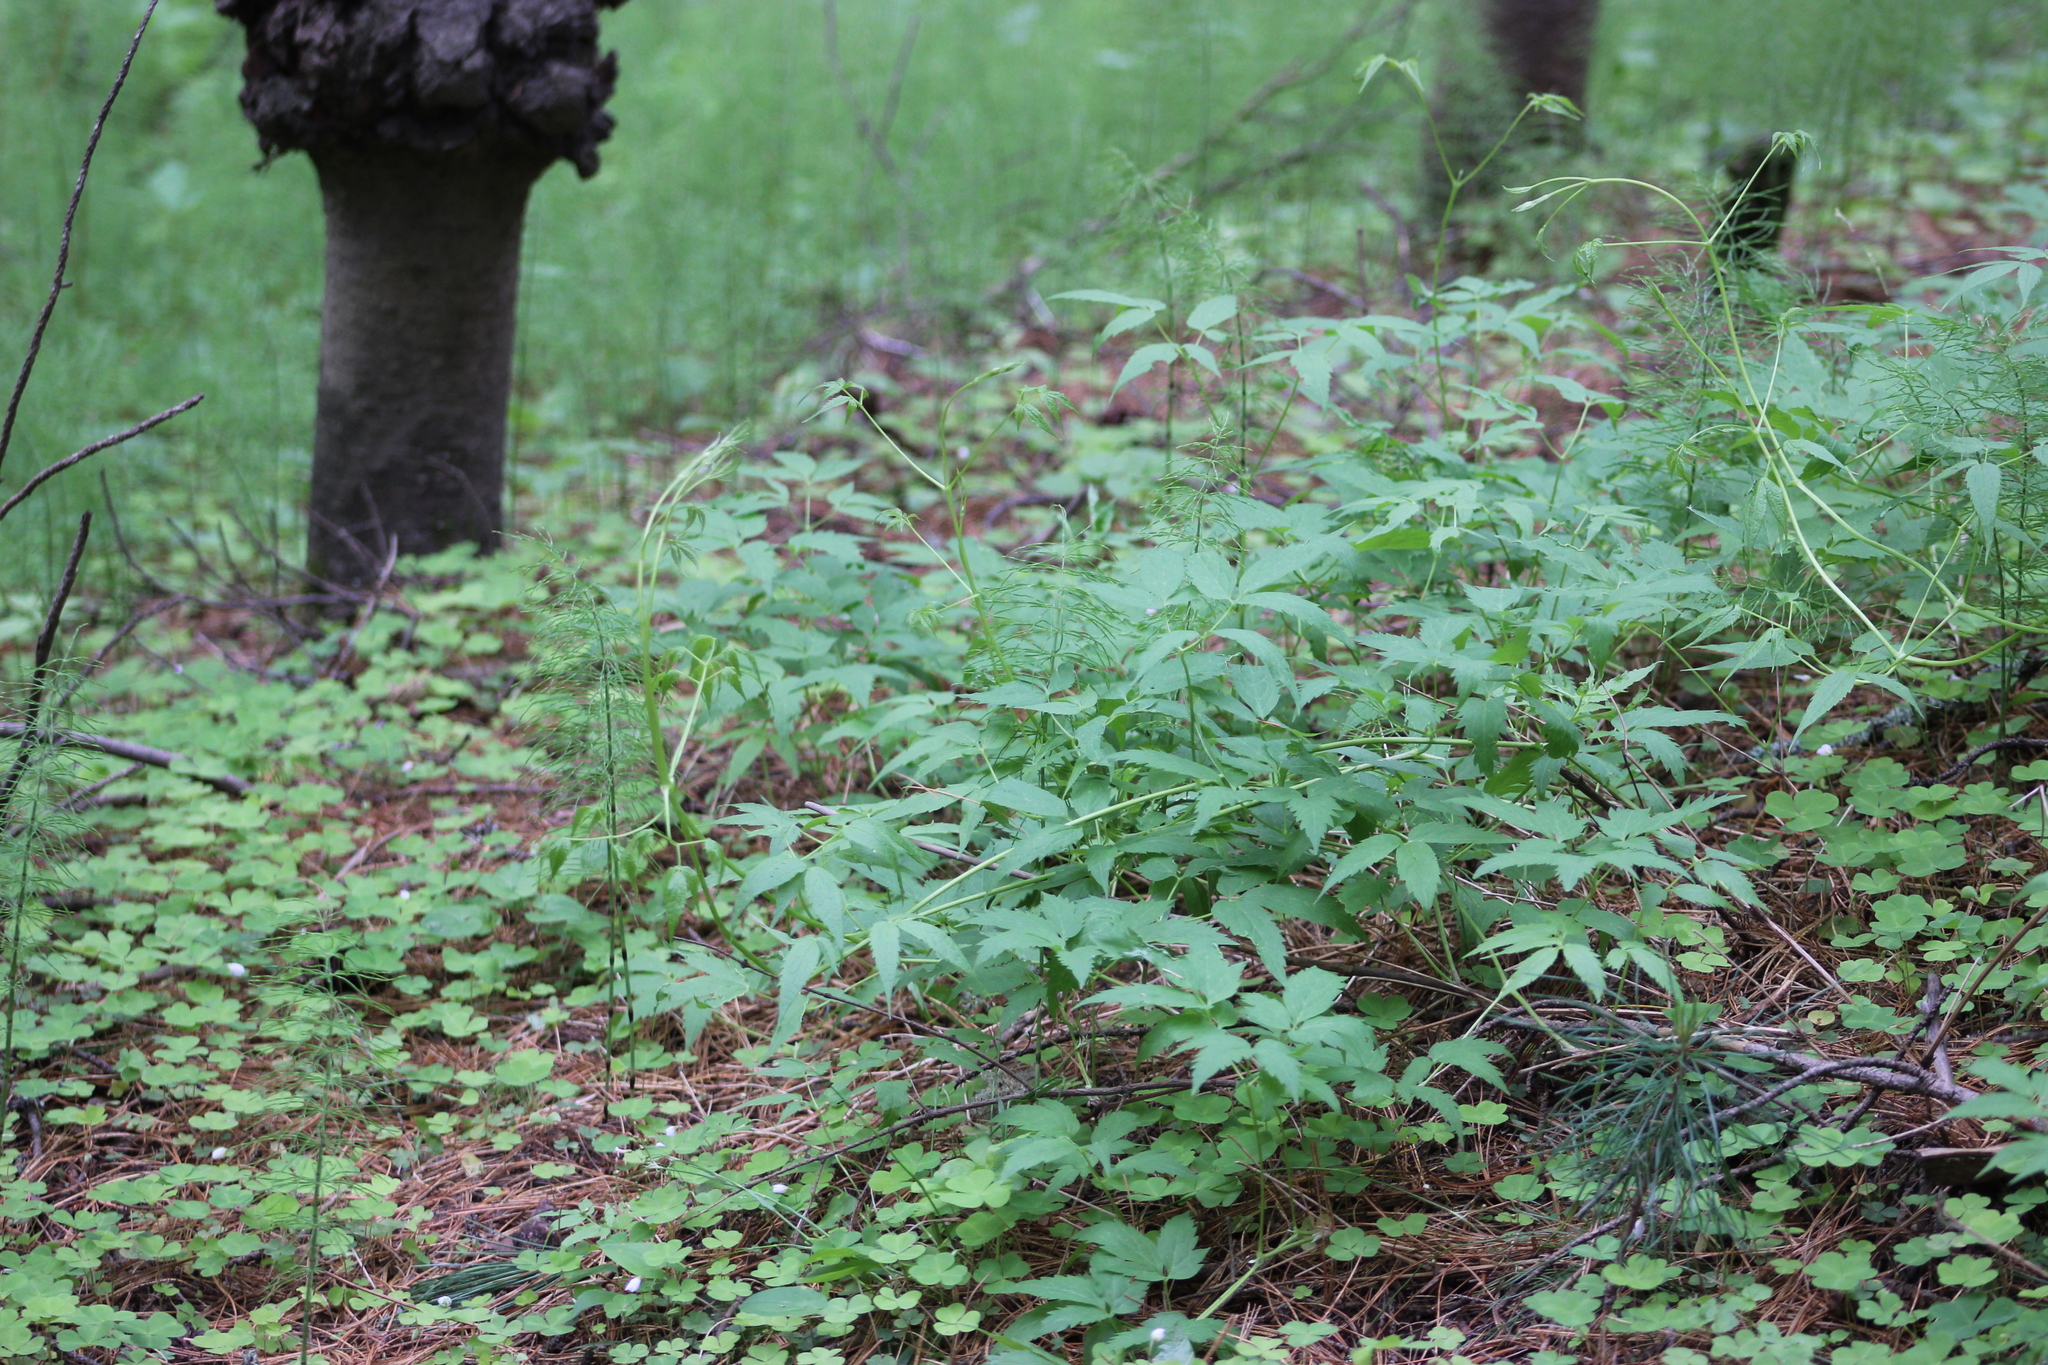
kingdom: Plantae
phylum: Tracheophyta
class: Magnoliopsida
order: Ranunculales
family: Ranunculaceae
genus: Clematis
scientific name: Clematis sibirica
